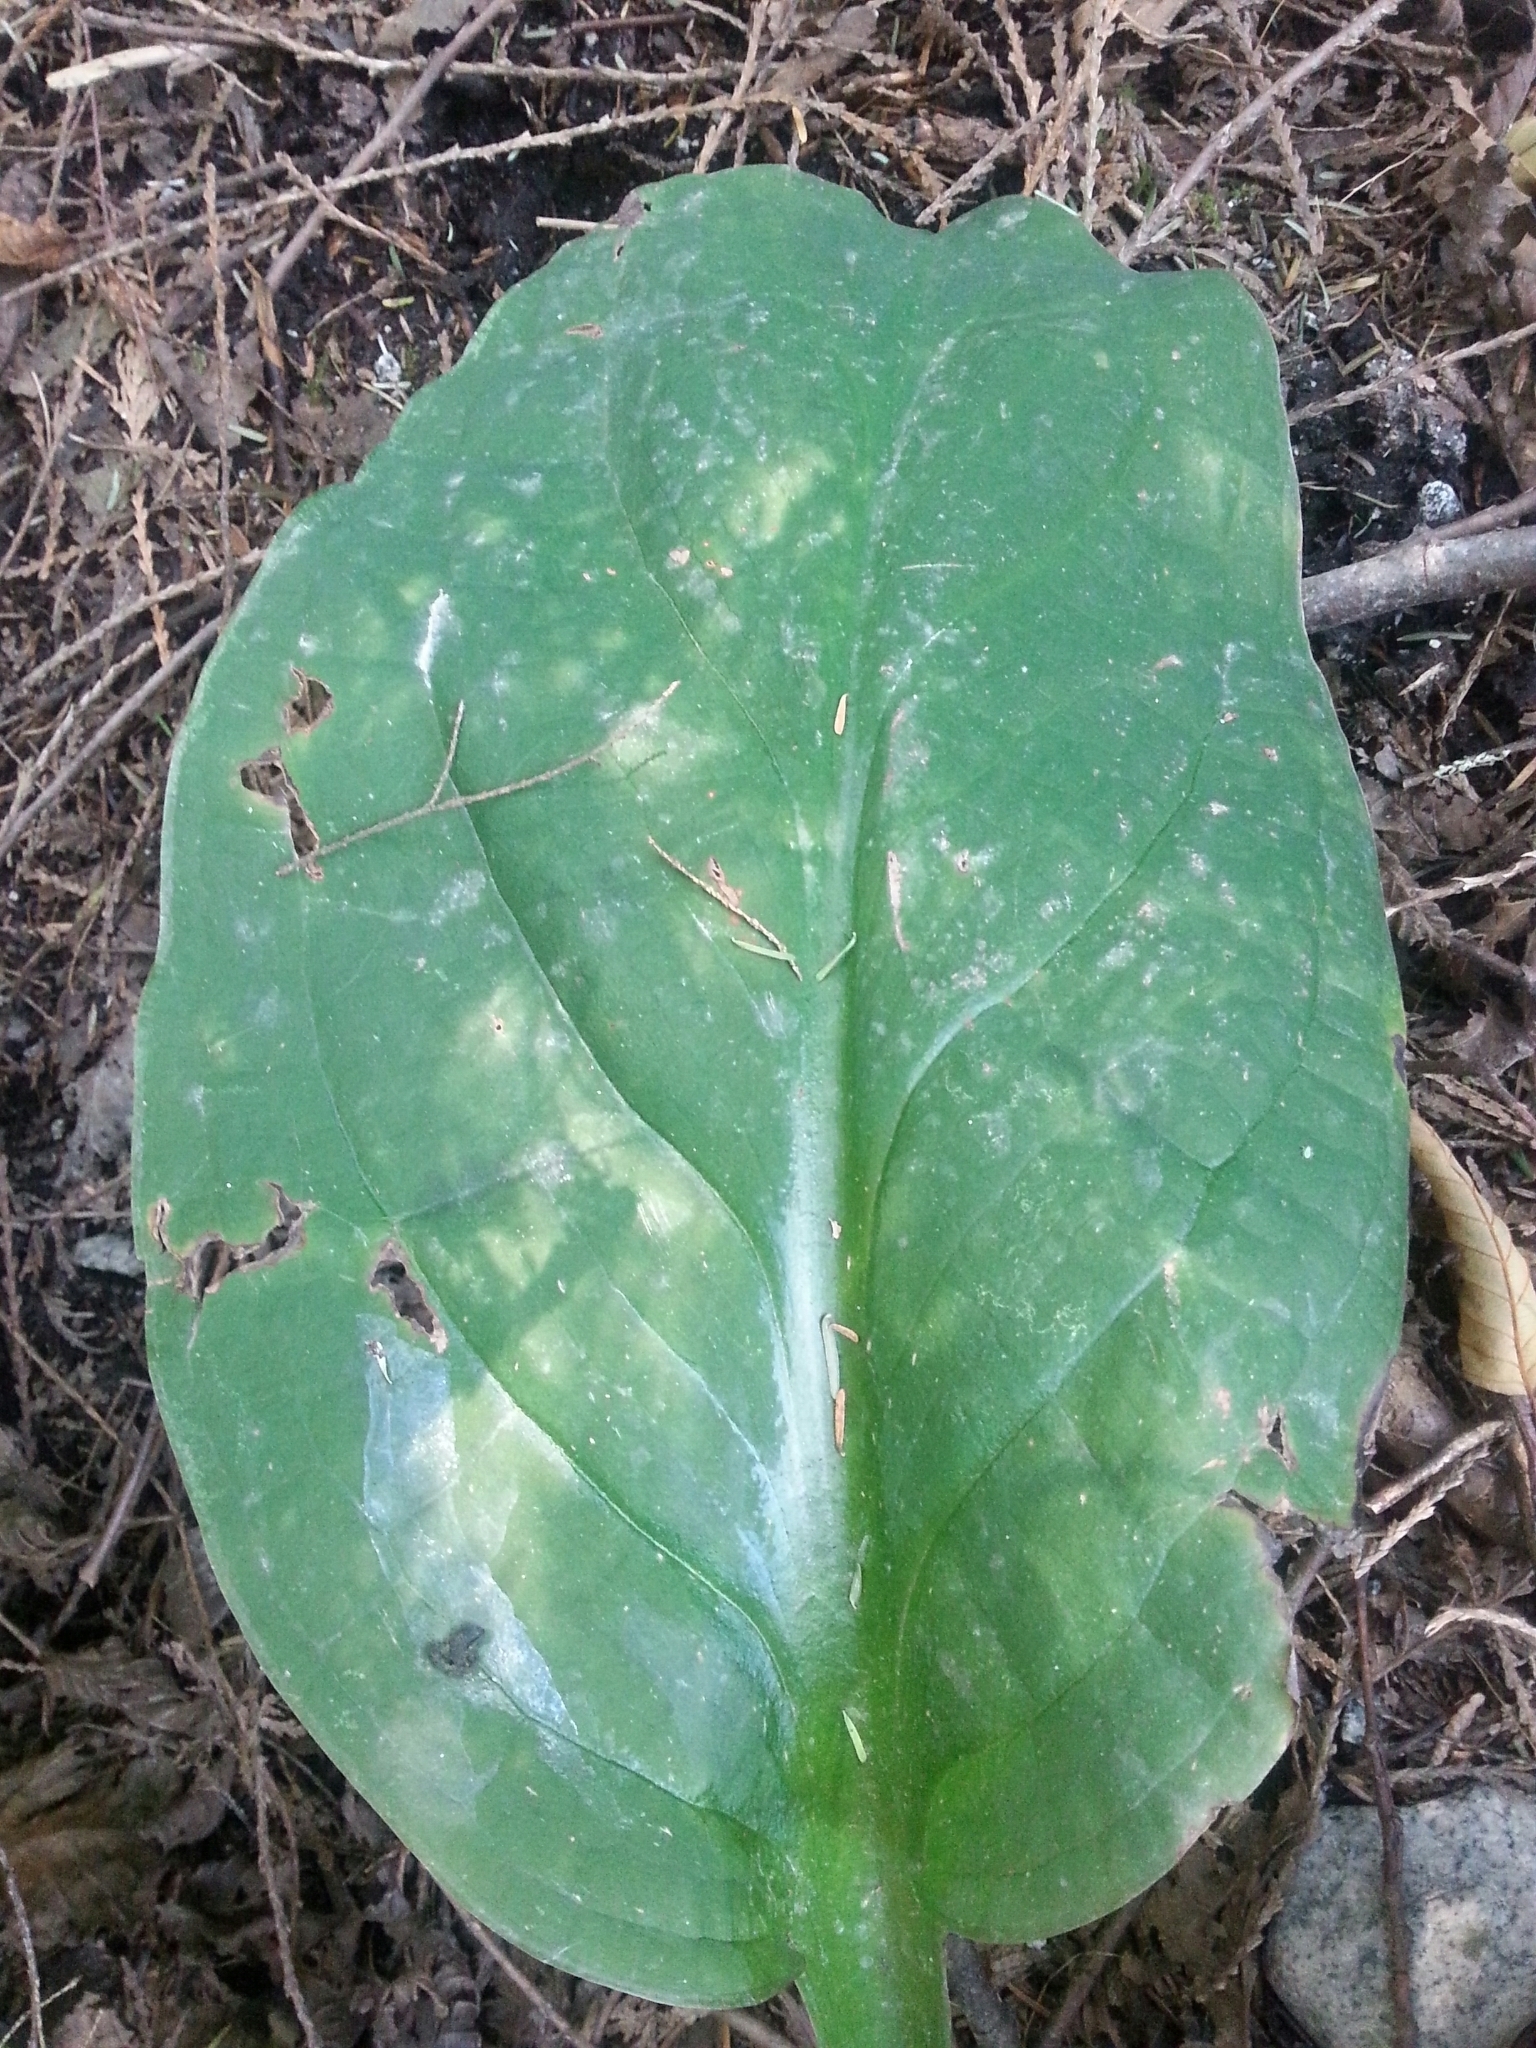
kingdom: Plantae
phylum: Tracheophyta
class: Liliopsida
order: Alismatales
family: Araceae
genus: Lysichiton
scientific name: Lysichiton americanus
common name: American skunk cabbage
